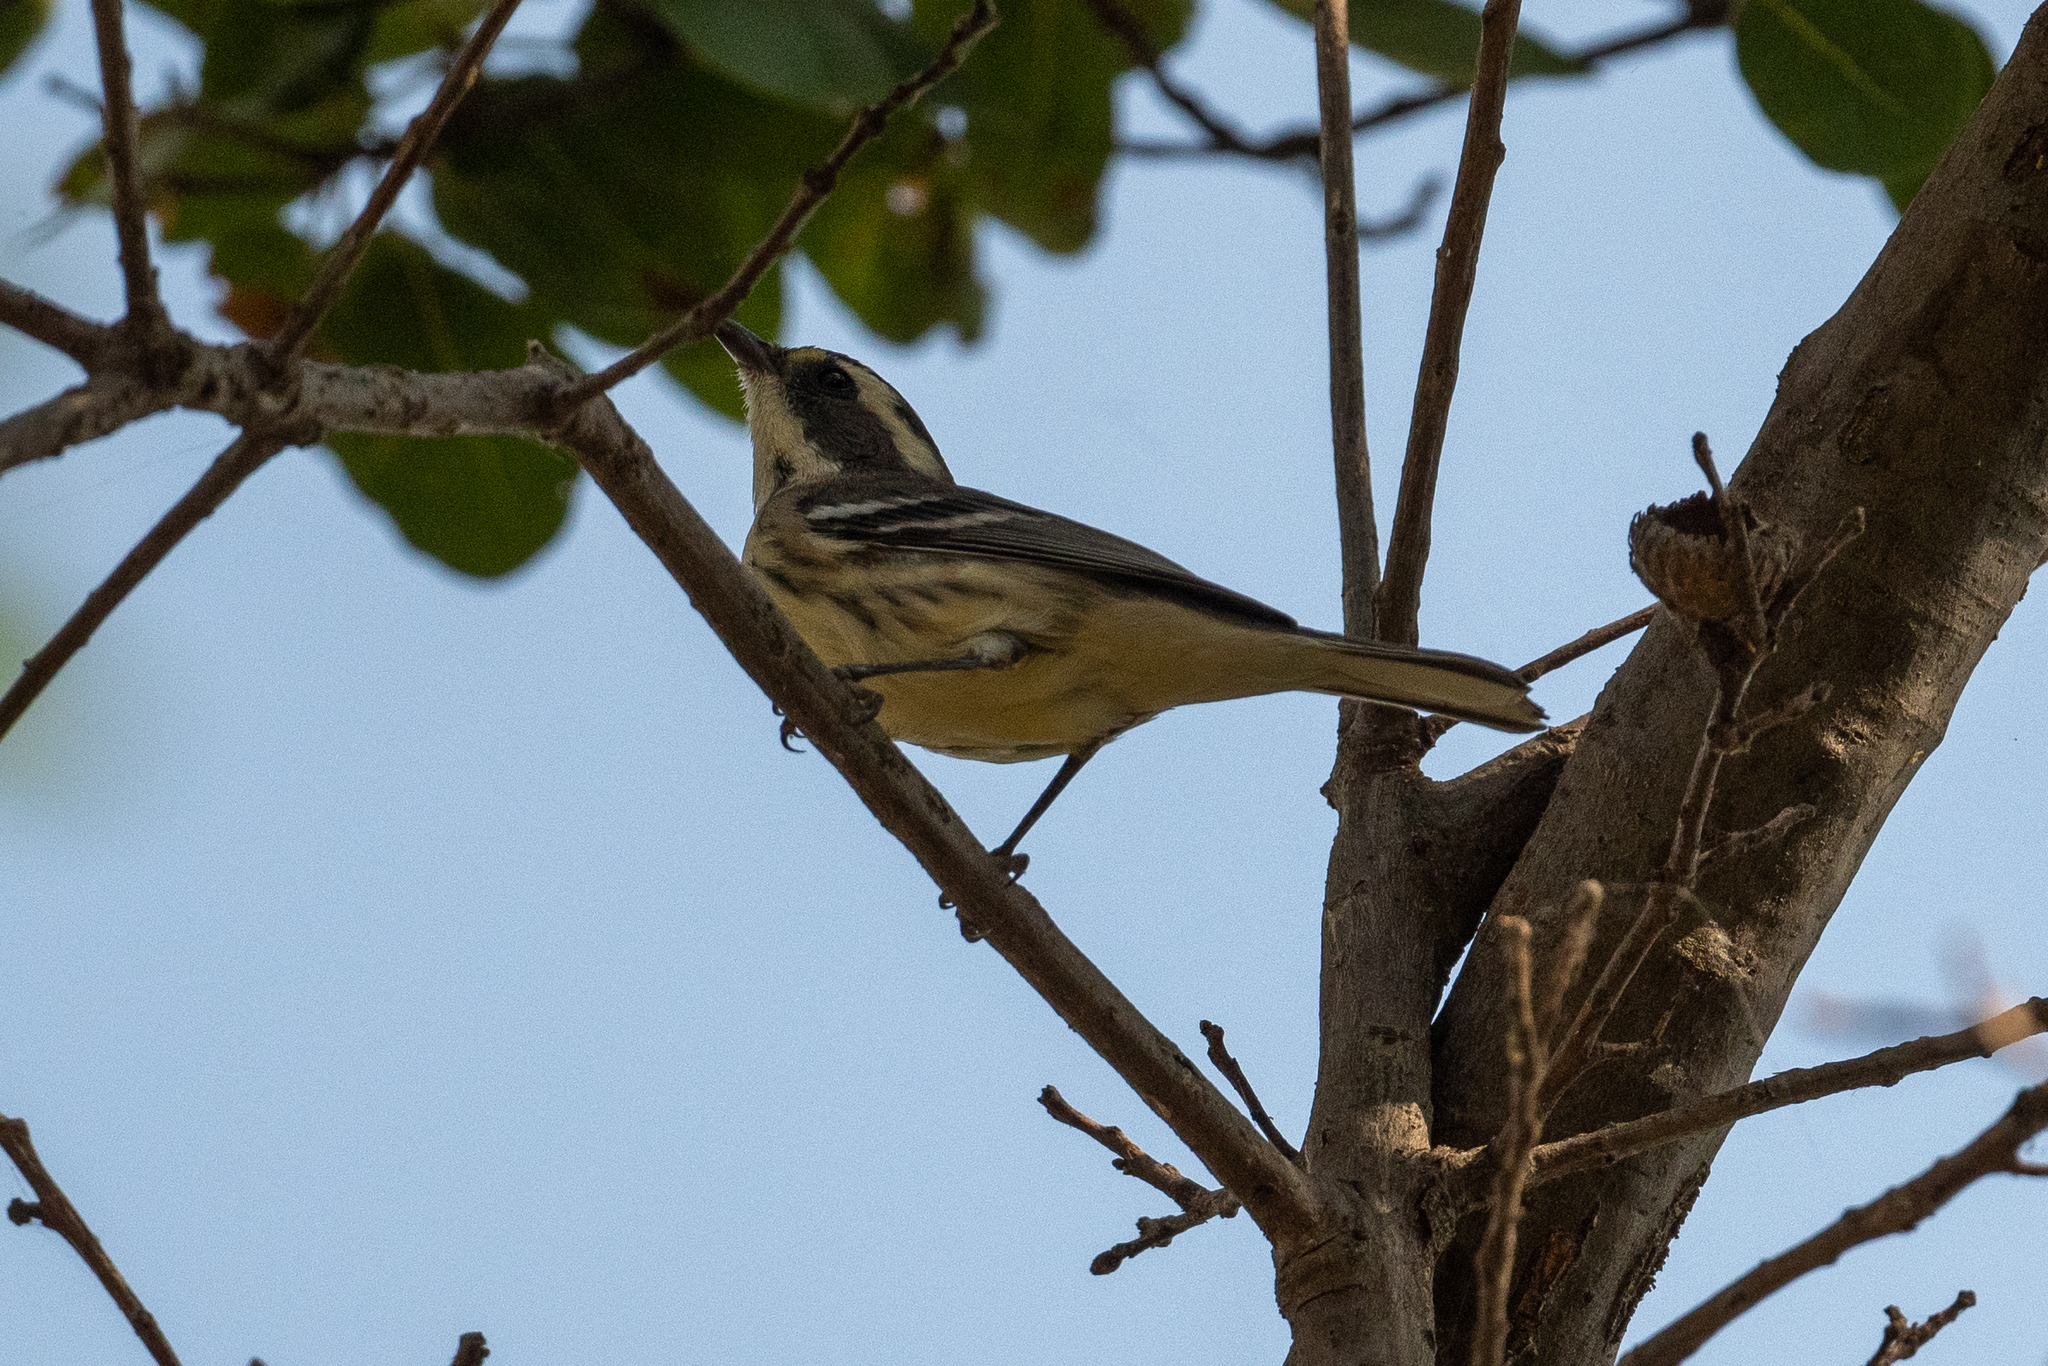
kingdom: Animalia
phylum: Chordata
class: Aves
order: Passeriformes
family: Parulidae
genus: Setophaga
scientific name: Setophaga nigrescens
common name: Black-throated gray warbler
